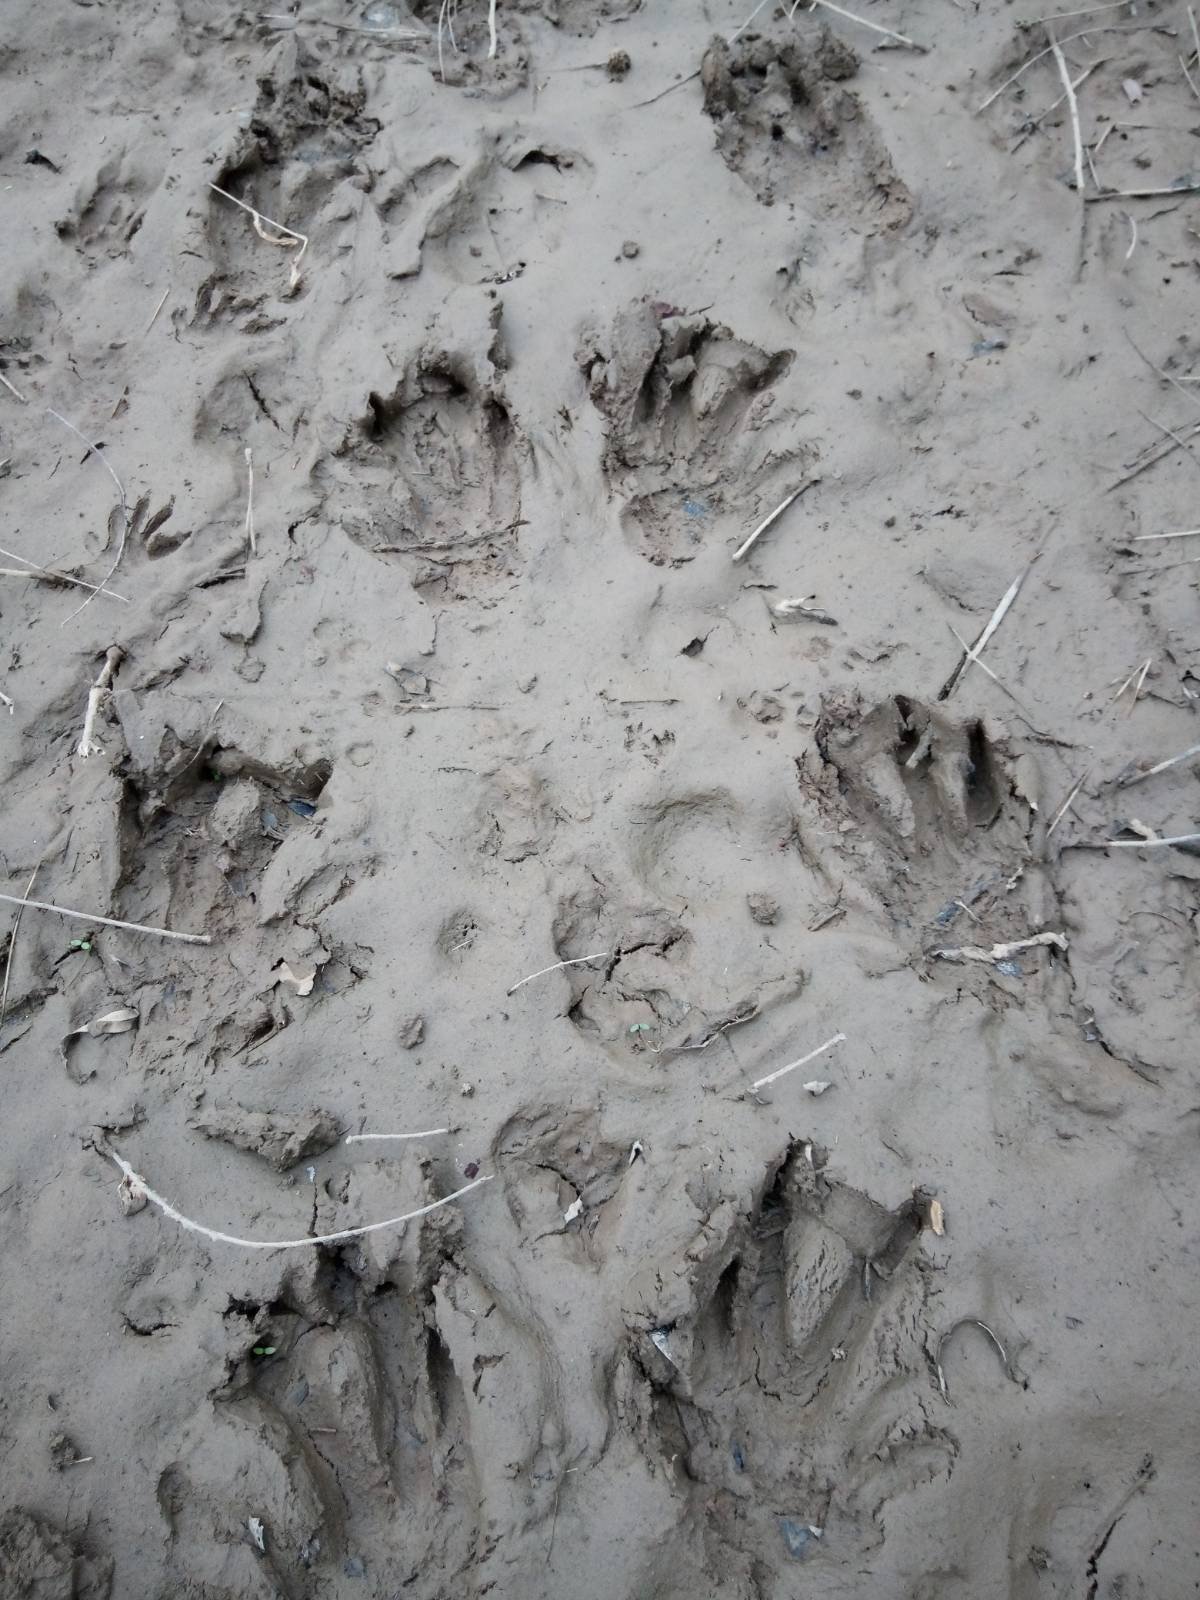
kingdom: Animalia
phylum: Chordata
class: Mammalia
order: Rodentia
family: Castoridae
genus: Castor
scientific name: Castor canadensis
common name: American beaver
